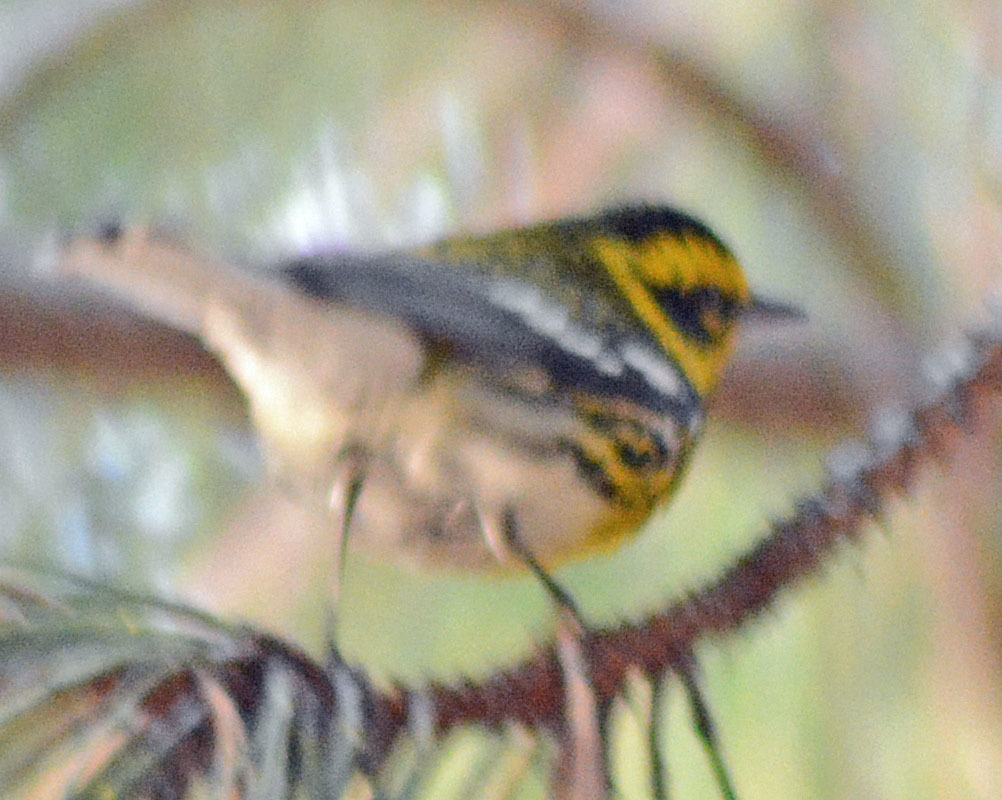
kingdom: Animalia
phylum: Chordata
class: Aves
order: Passeriformes
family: Parulidae
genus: Setophaga
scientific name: Setophaga townsendi
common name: Townsend's warbler
